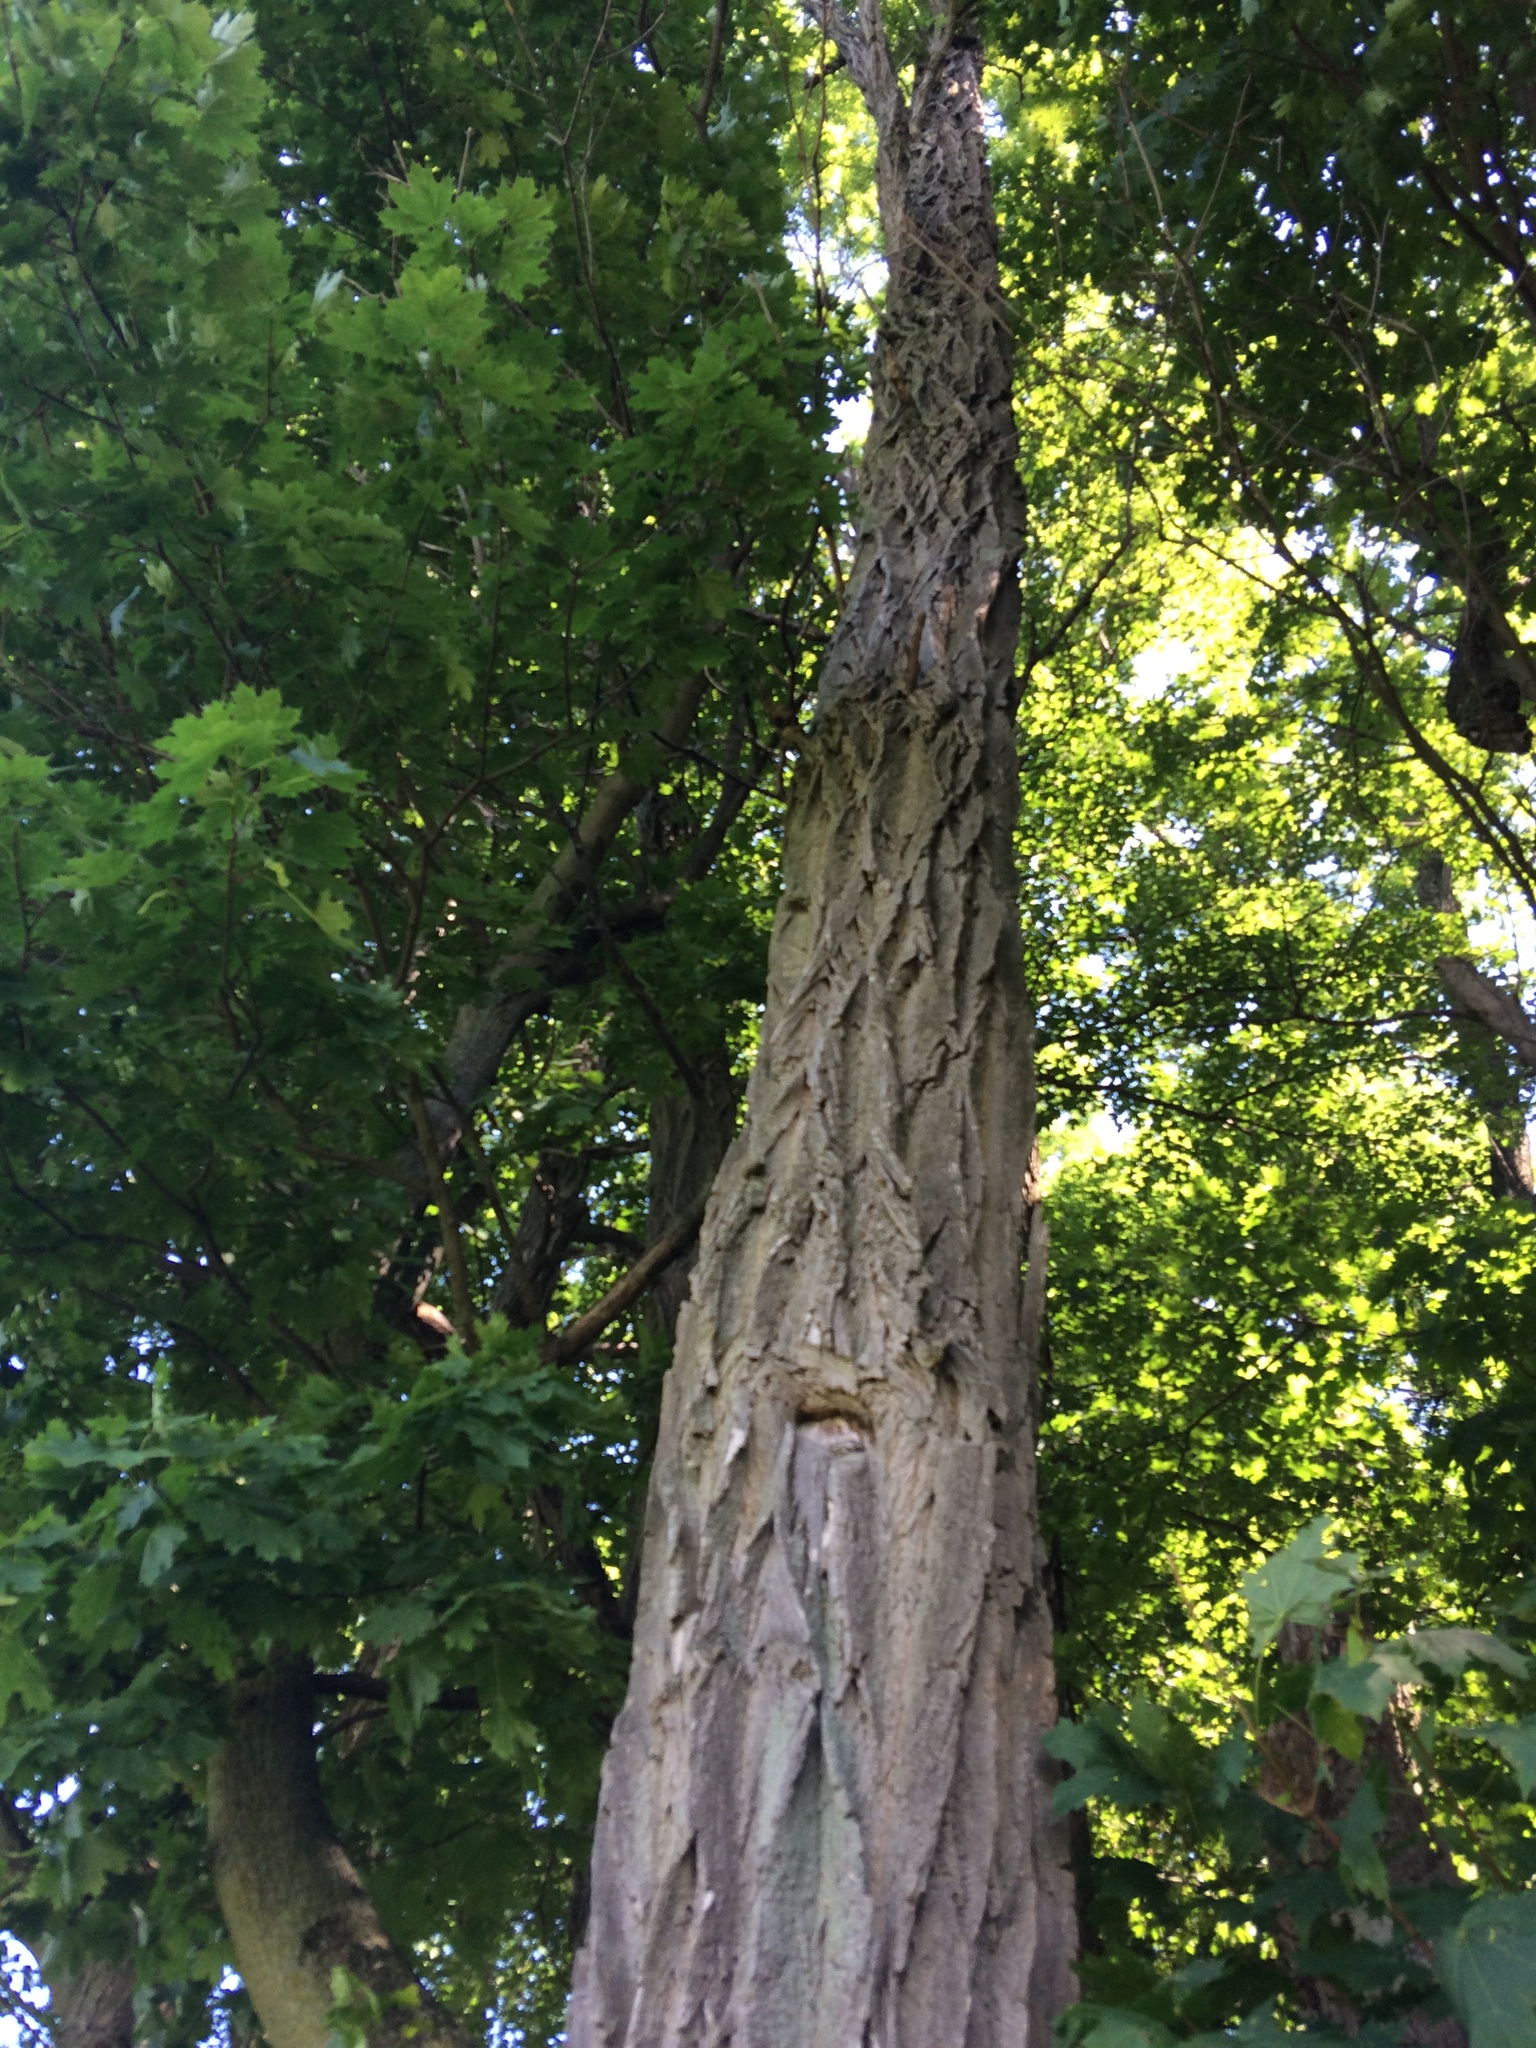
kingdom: Plantae
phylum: Tracheophyta
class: Magnoliopsida
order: Fabales
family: Fabaceae
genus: Robinia
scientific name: Robinia pseudoacacia
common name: Black locust
